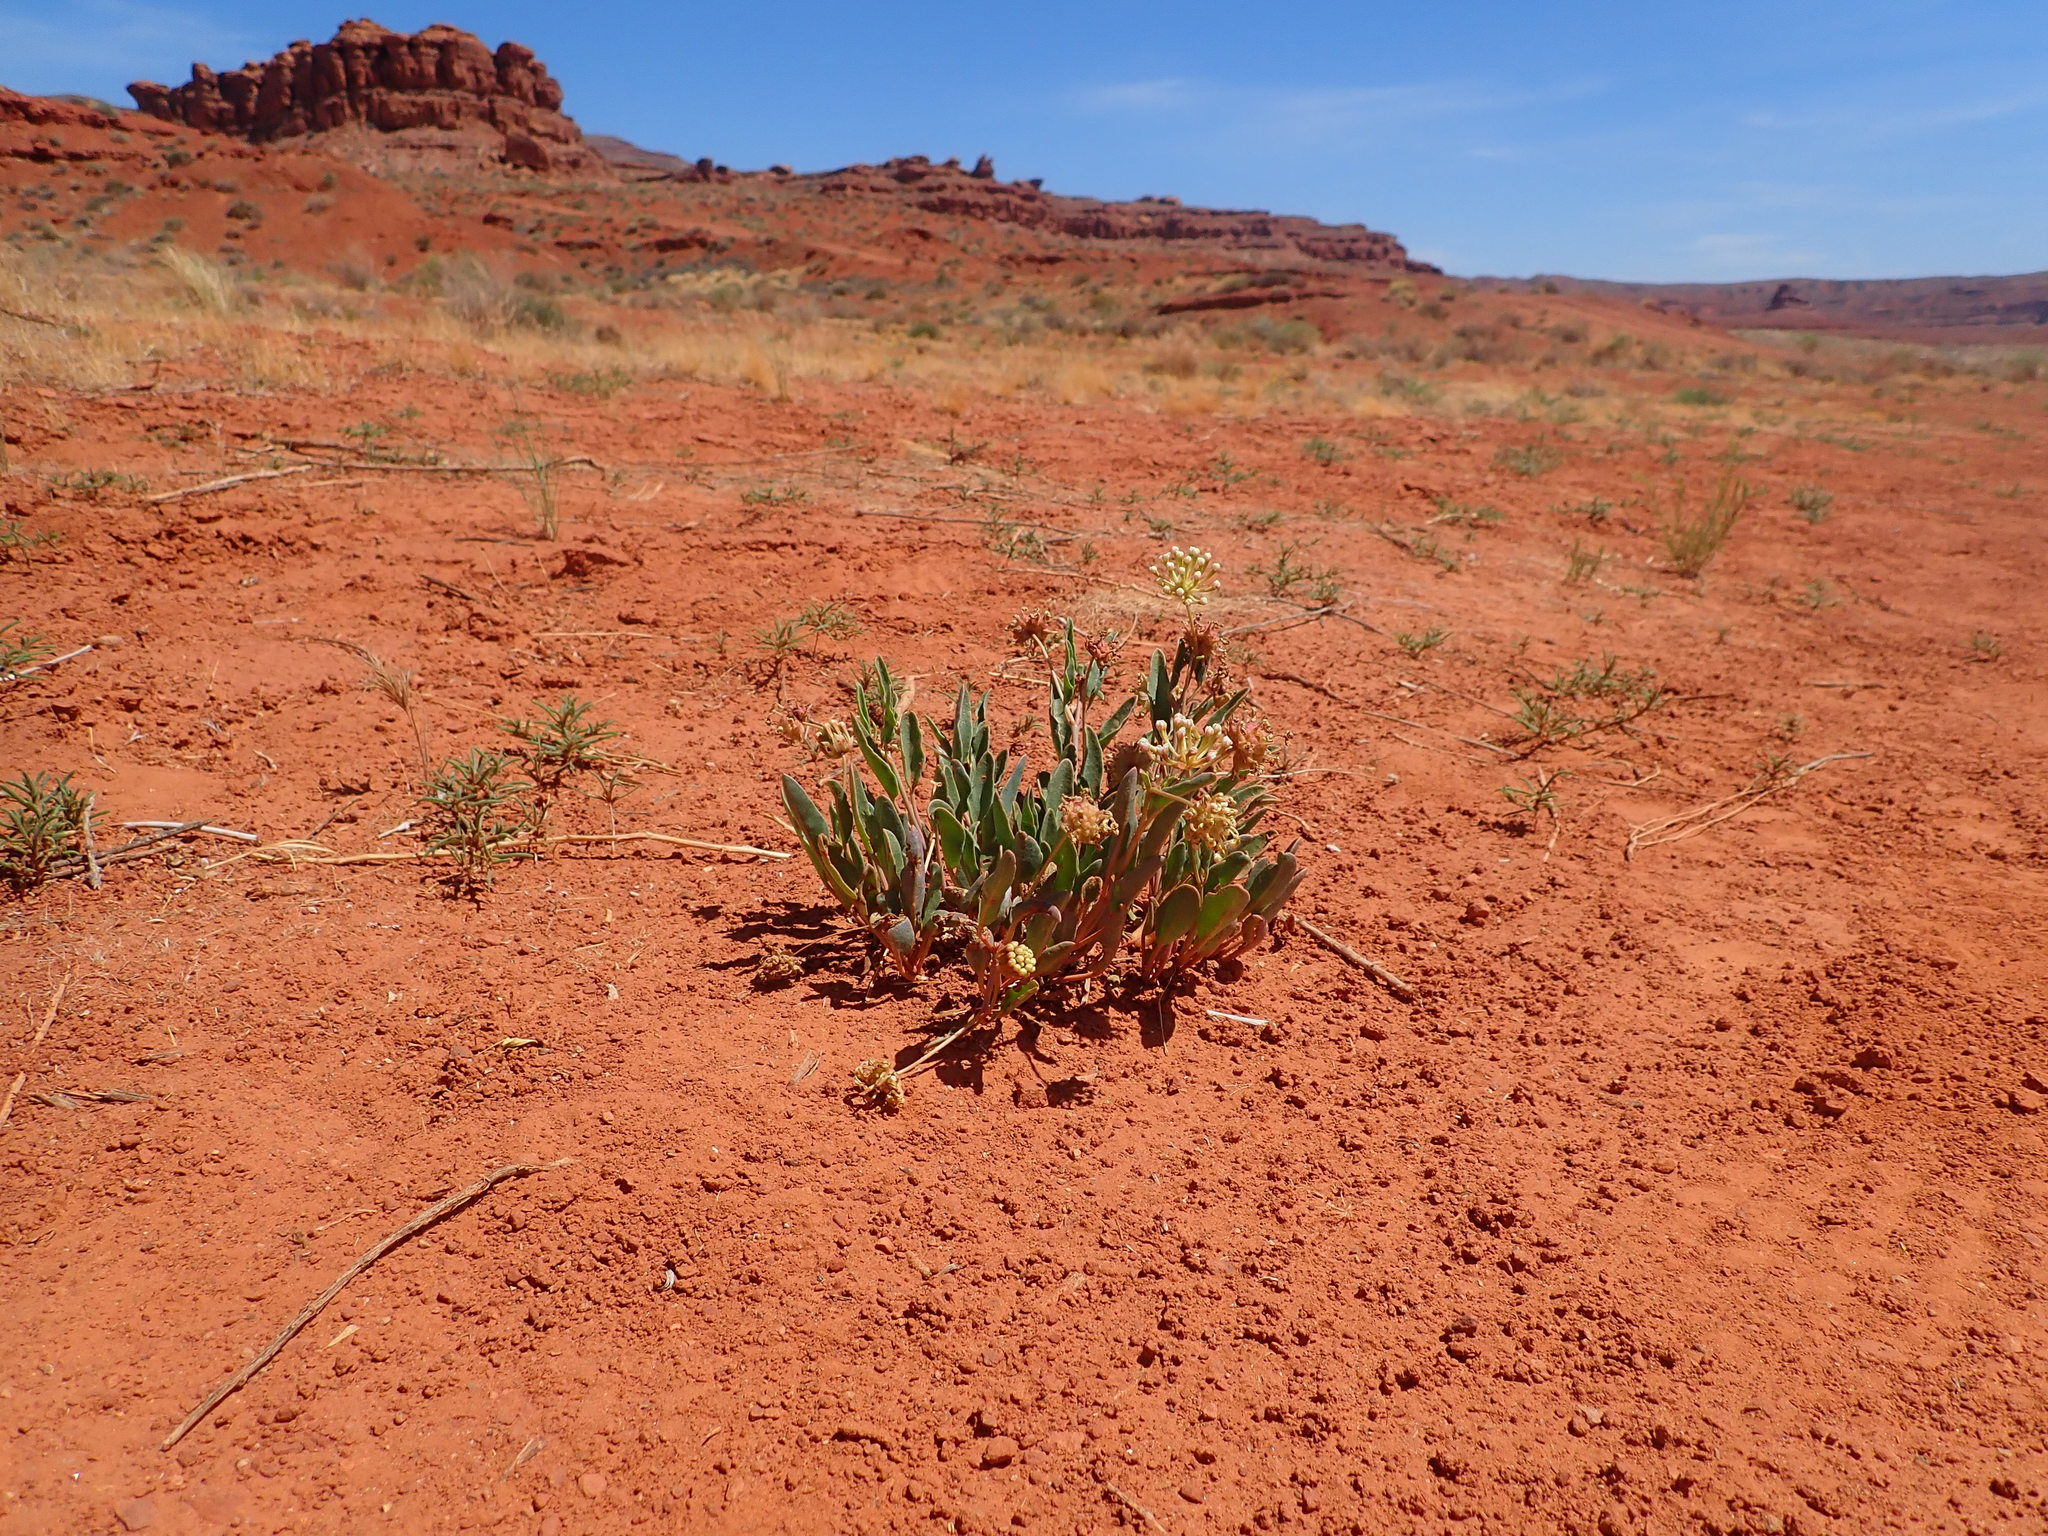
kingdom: Plantae
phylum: Tracheophyta
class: Magnoliopsida
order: Caryophyllales
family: Nyctaginaceae
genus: Abronia
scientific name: Abronia elliptica
